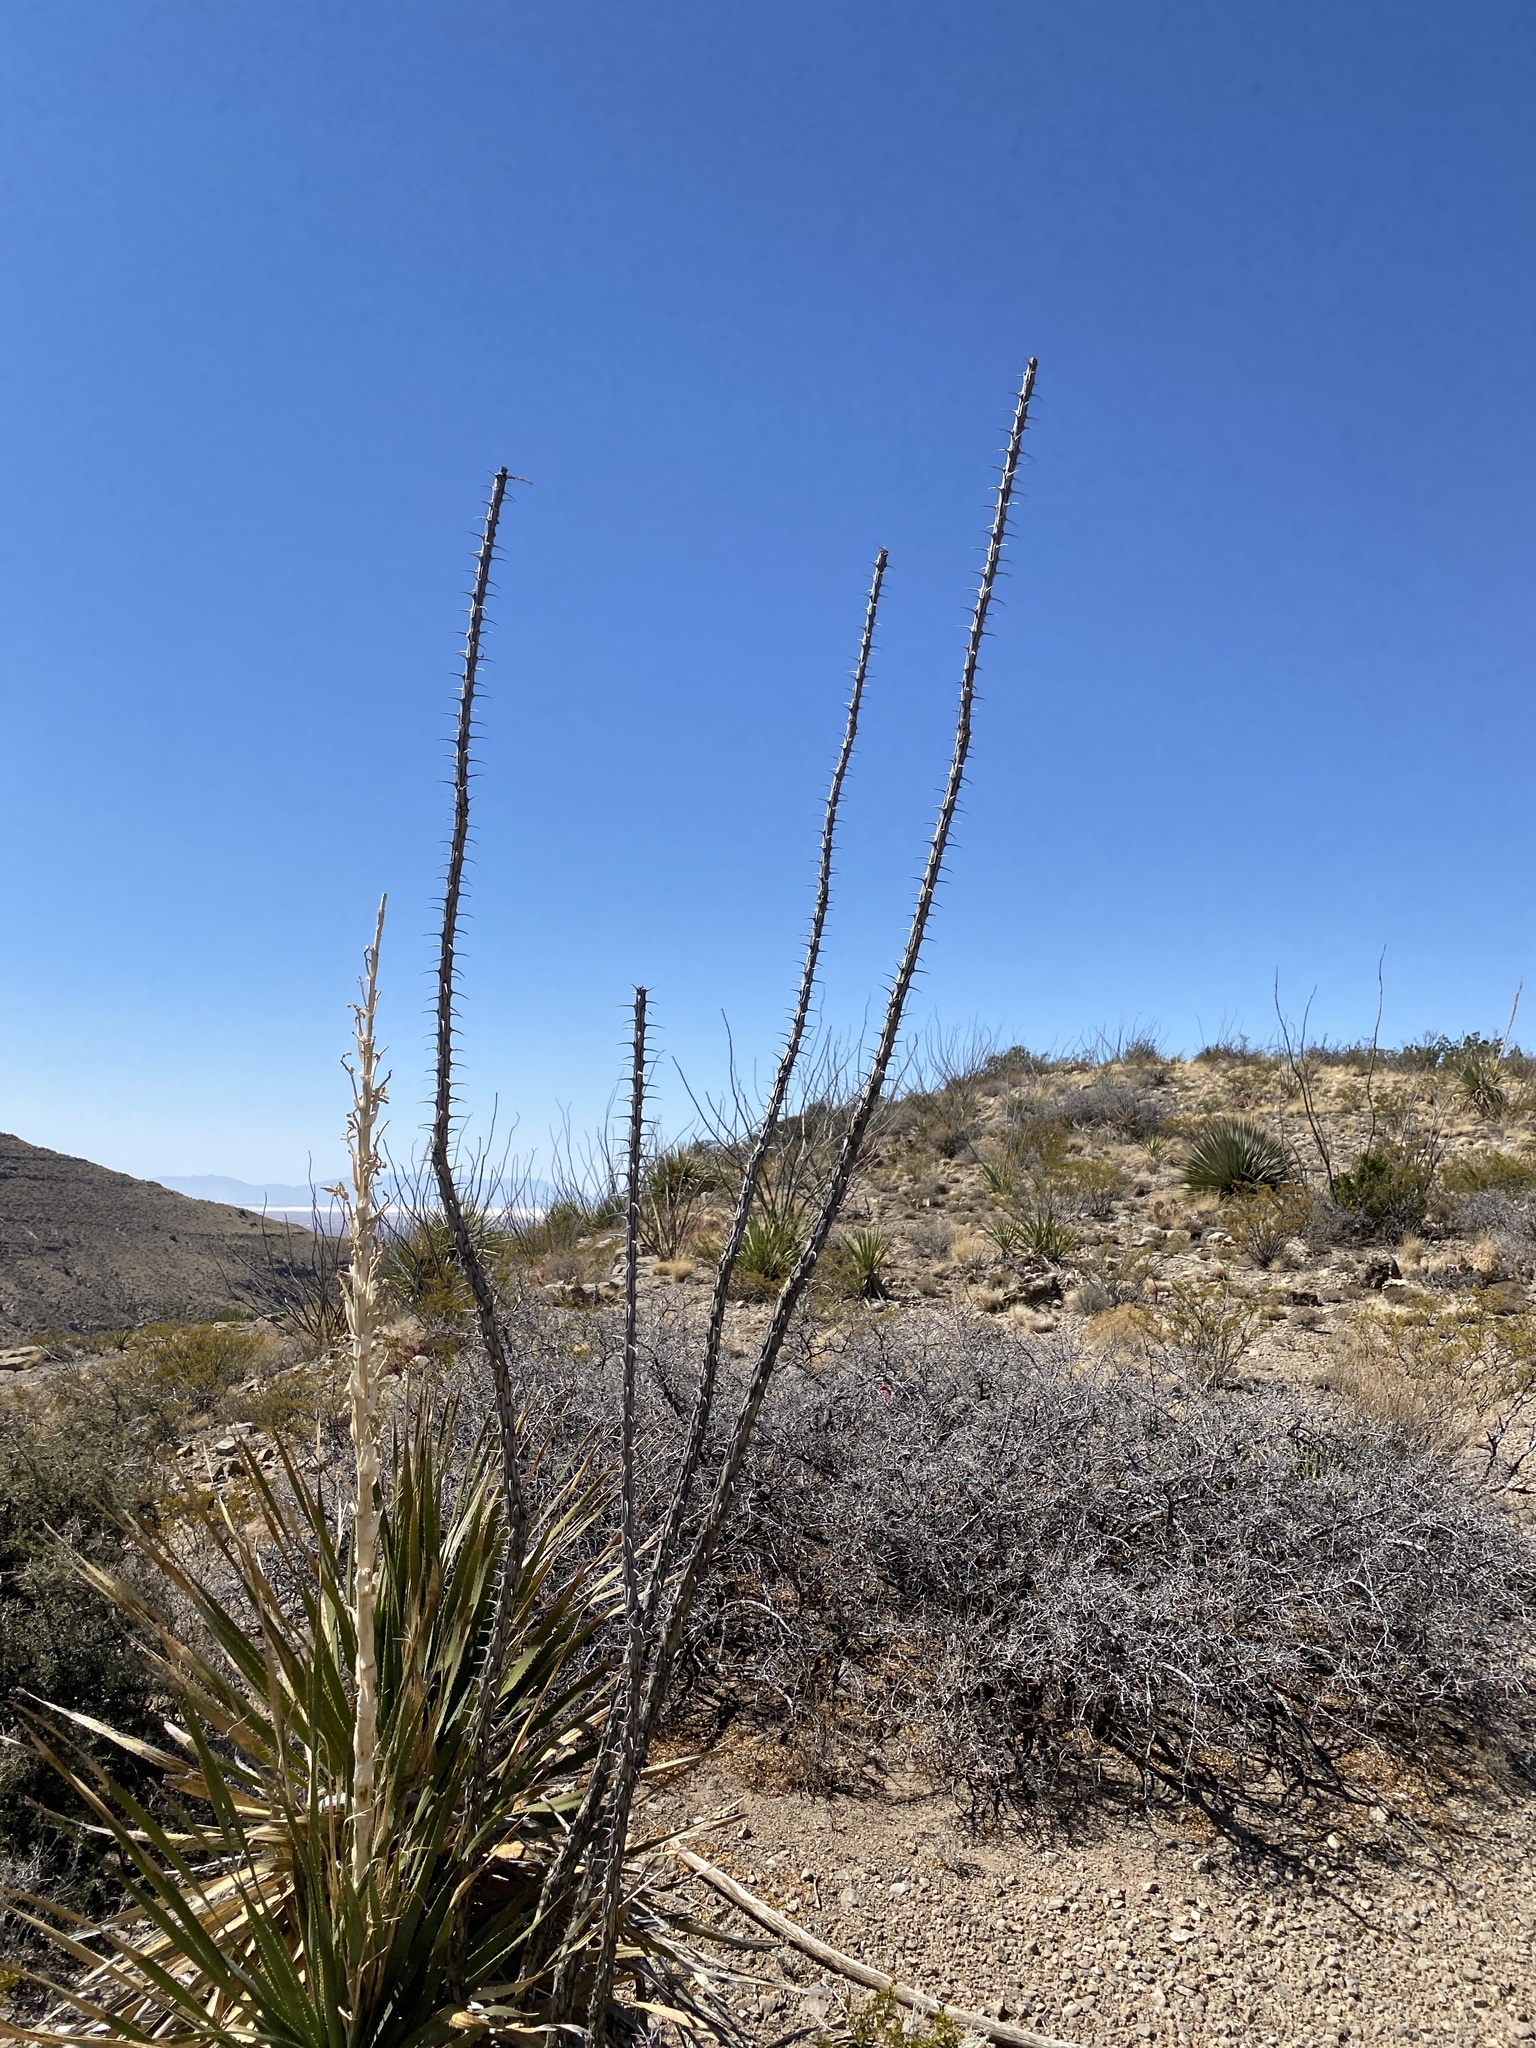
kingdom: Plantae
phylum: Tracheophyta
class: Magnoliopsida
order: Ericales
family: Fouquieriaceae
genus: Fouquieria
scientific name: Fouquieria splendens
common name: Vine-cactus
